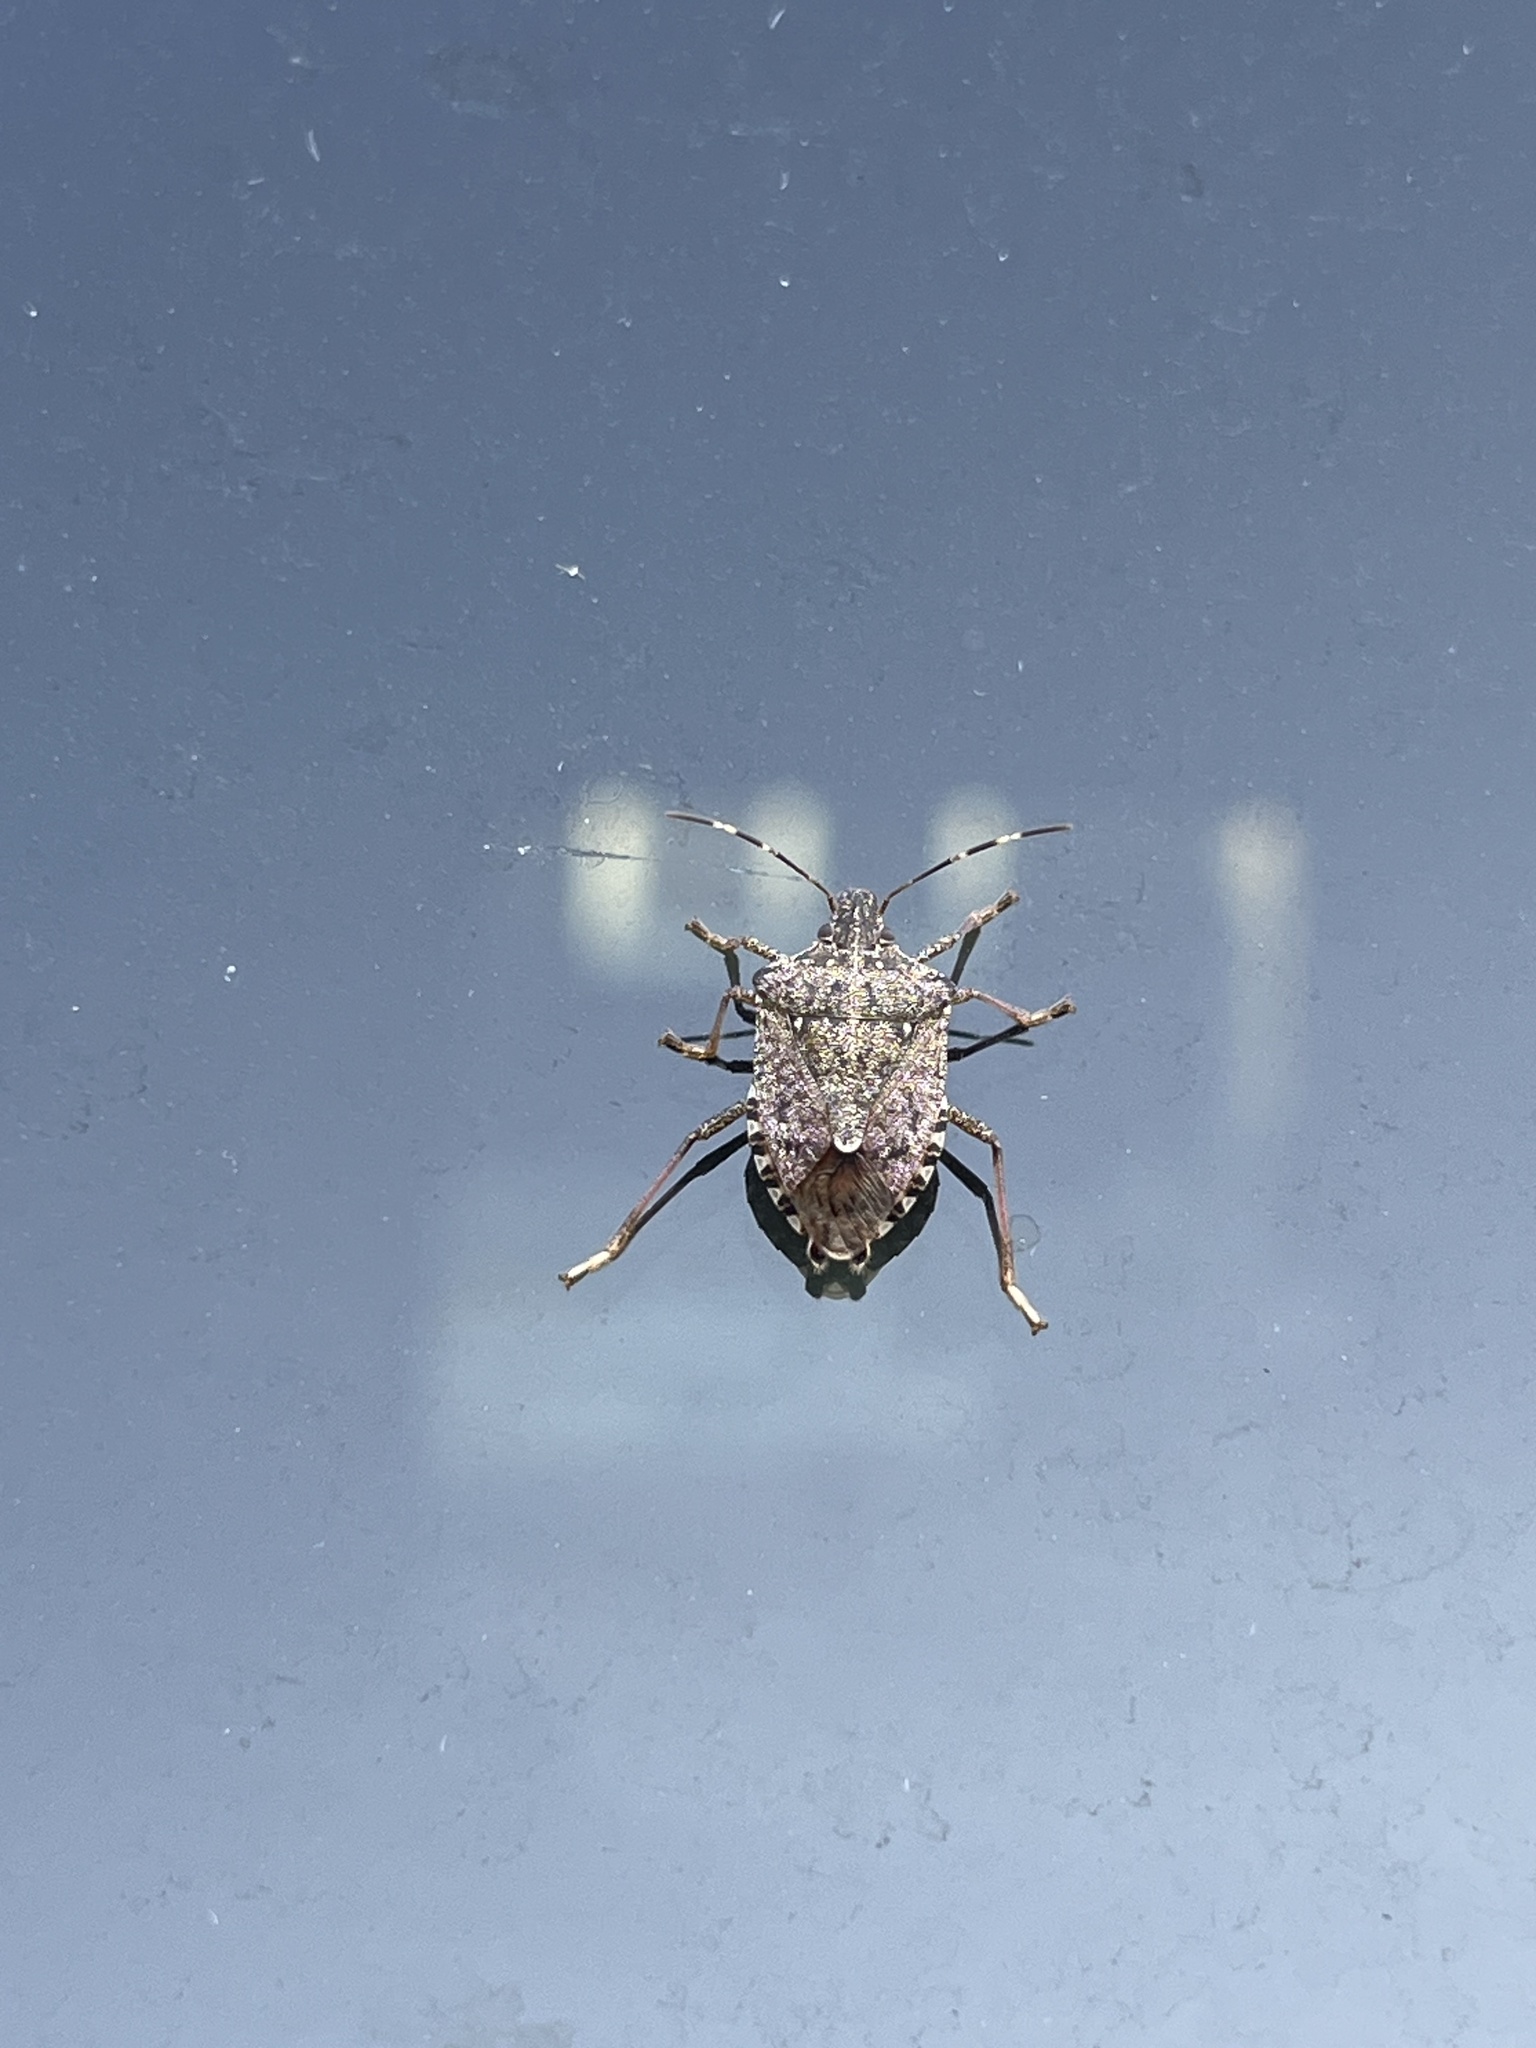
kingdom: Animalia
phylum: Arthropoda
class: Insecta
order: Hemiptera
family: Pentatomidae
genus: Halyomorpha
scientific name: Halyomorpha halys
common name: Brown marmorated stink bug
